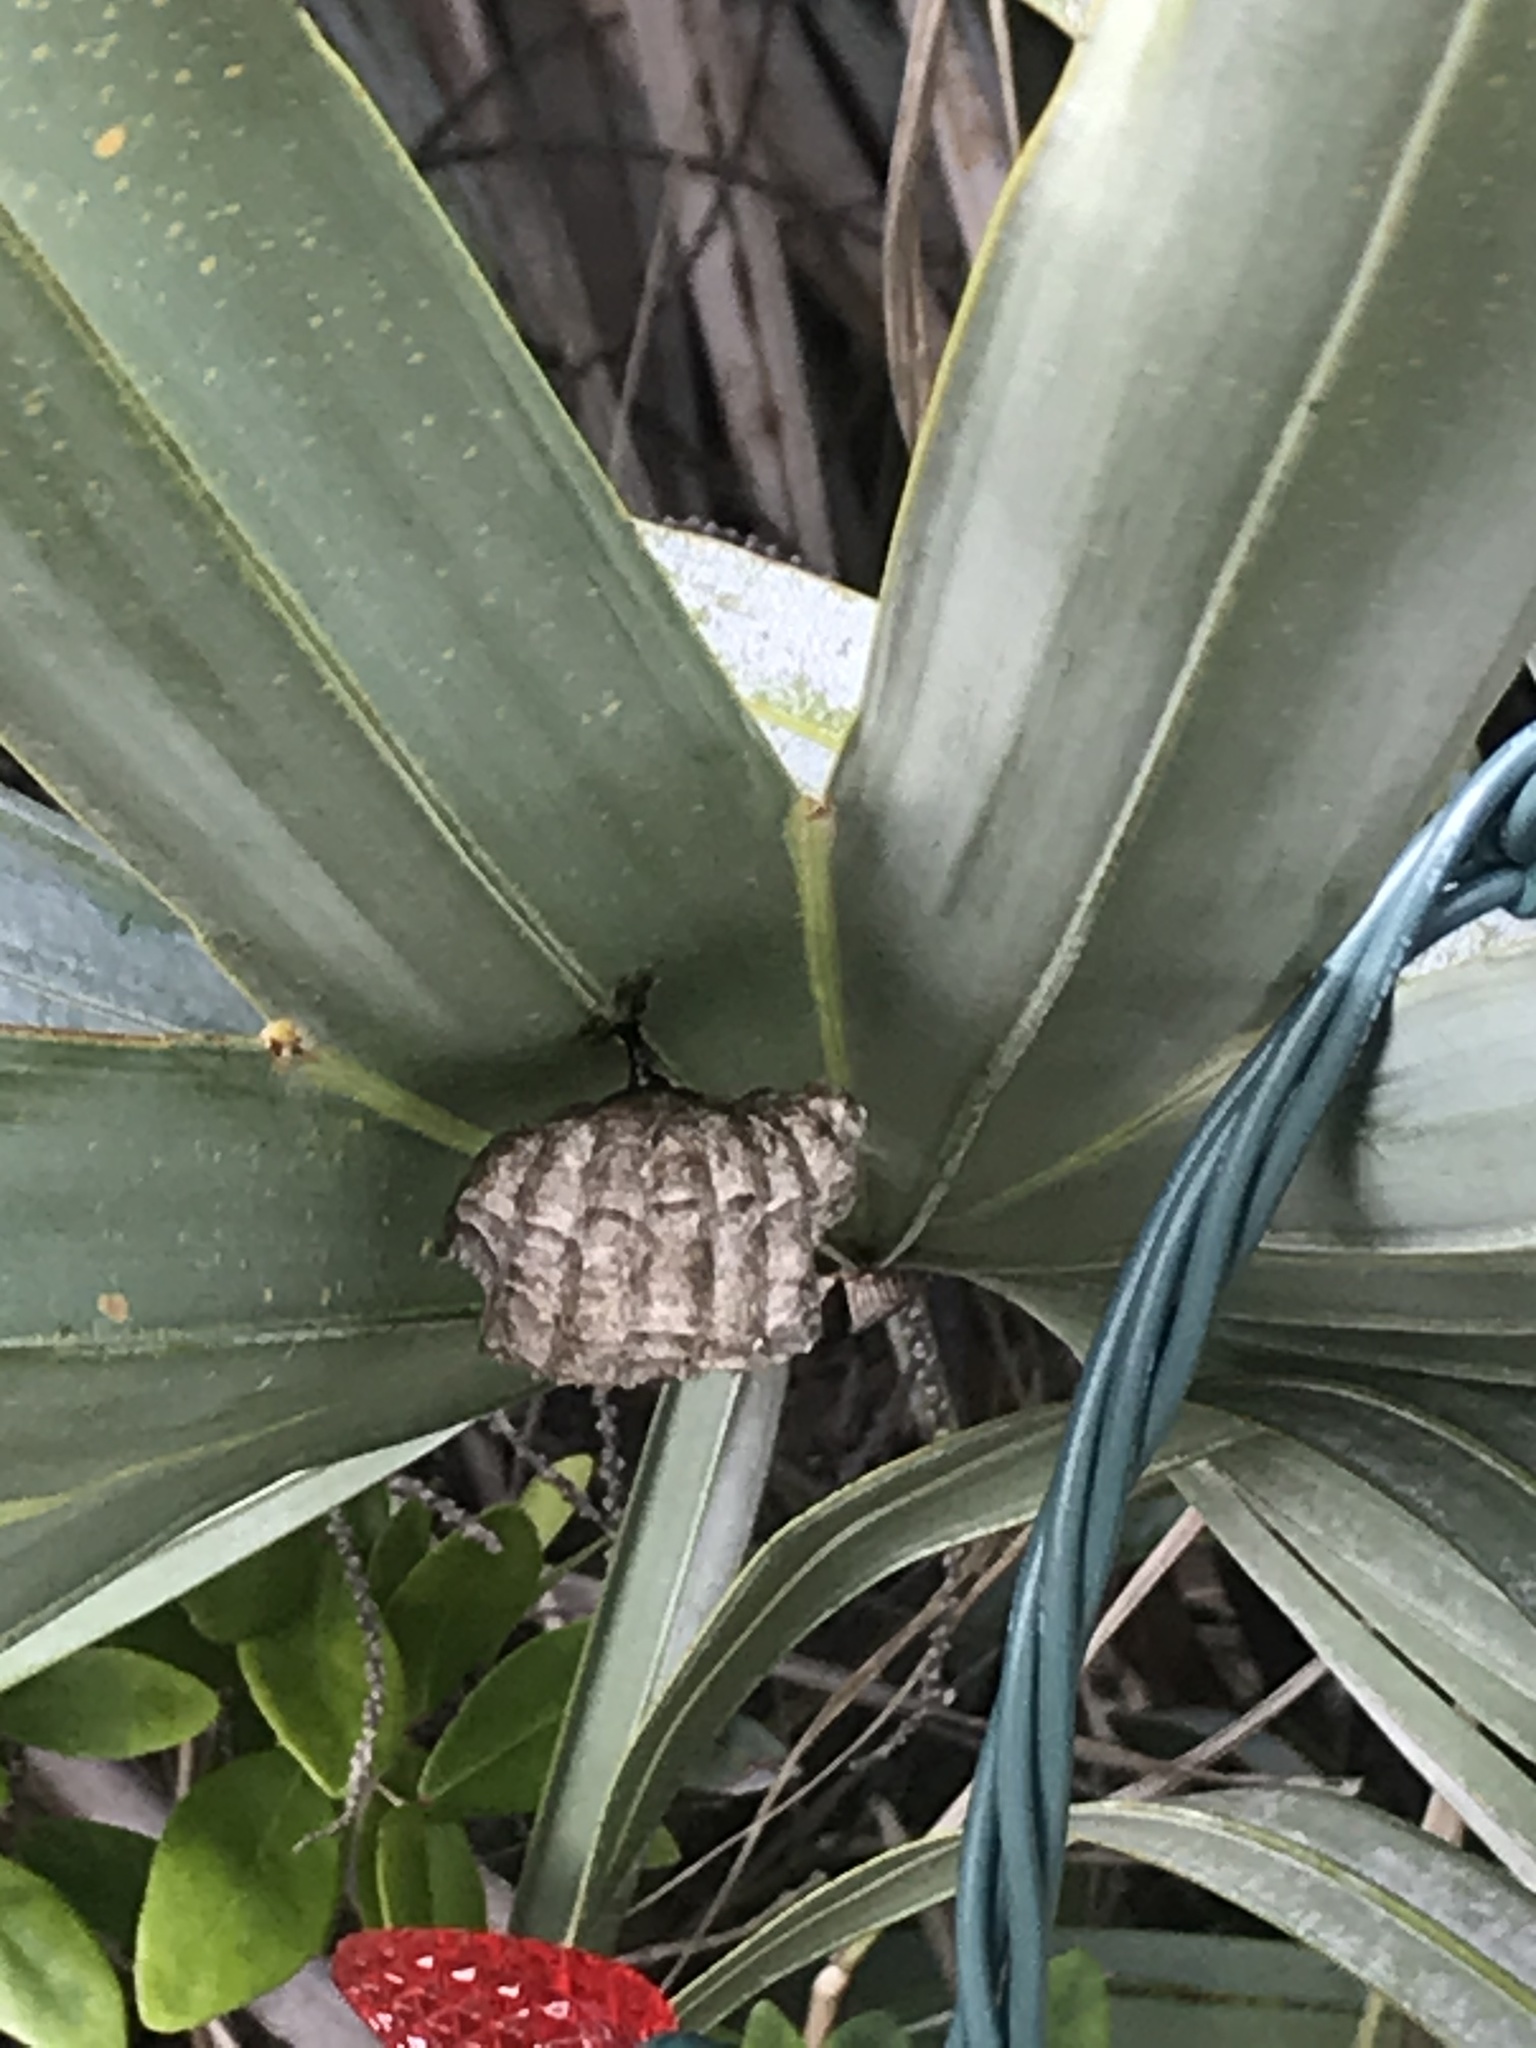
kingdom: Animalia
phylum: Arthropoda
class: Insecta
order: Hymenoptera
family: Vespidae
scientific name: Vespidae
